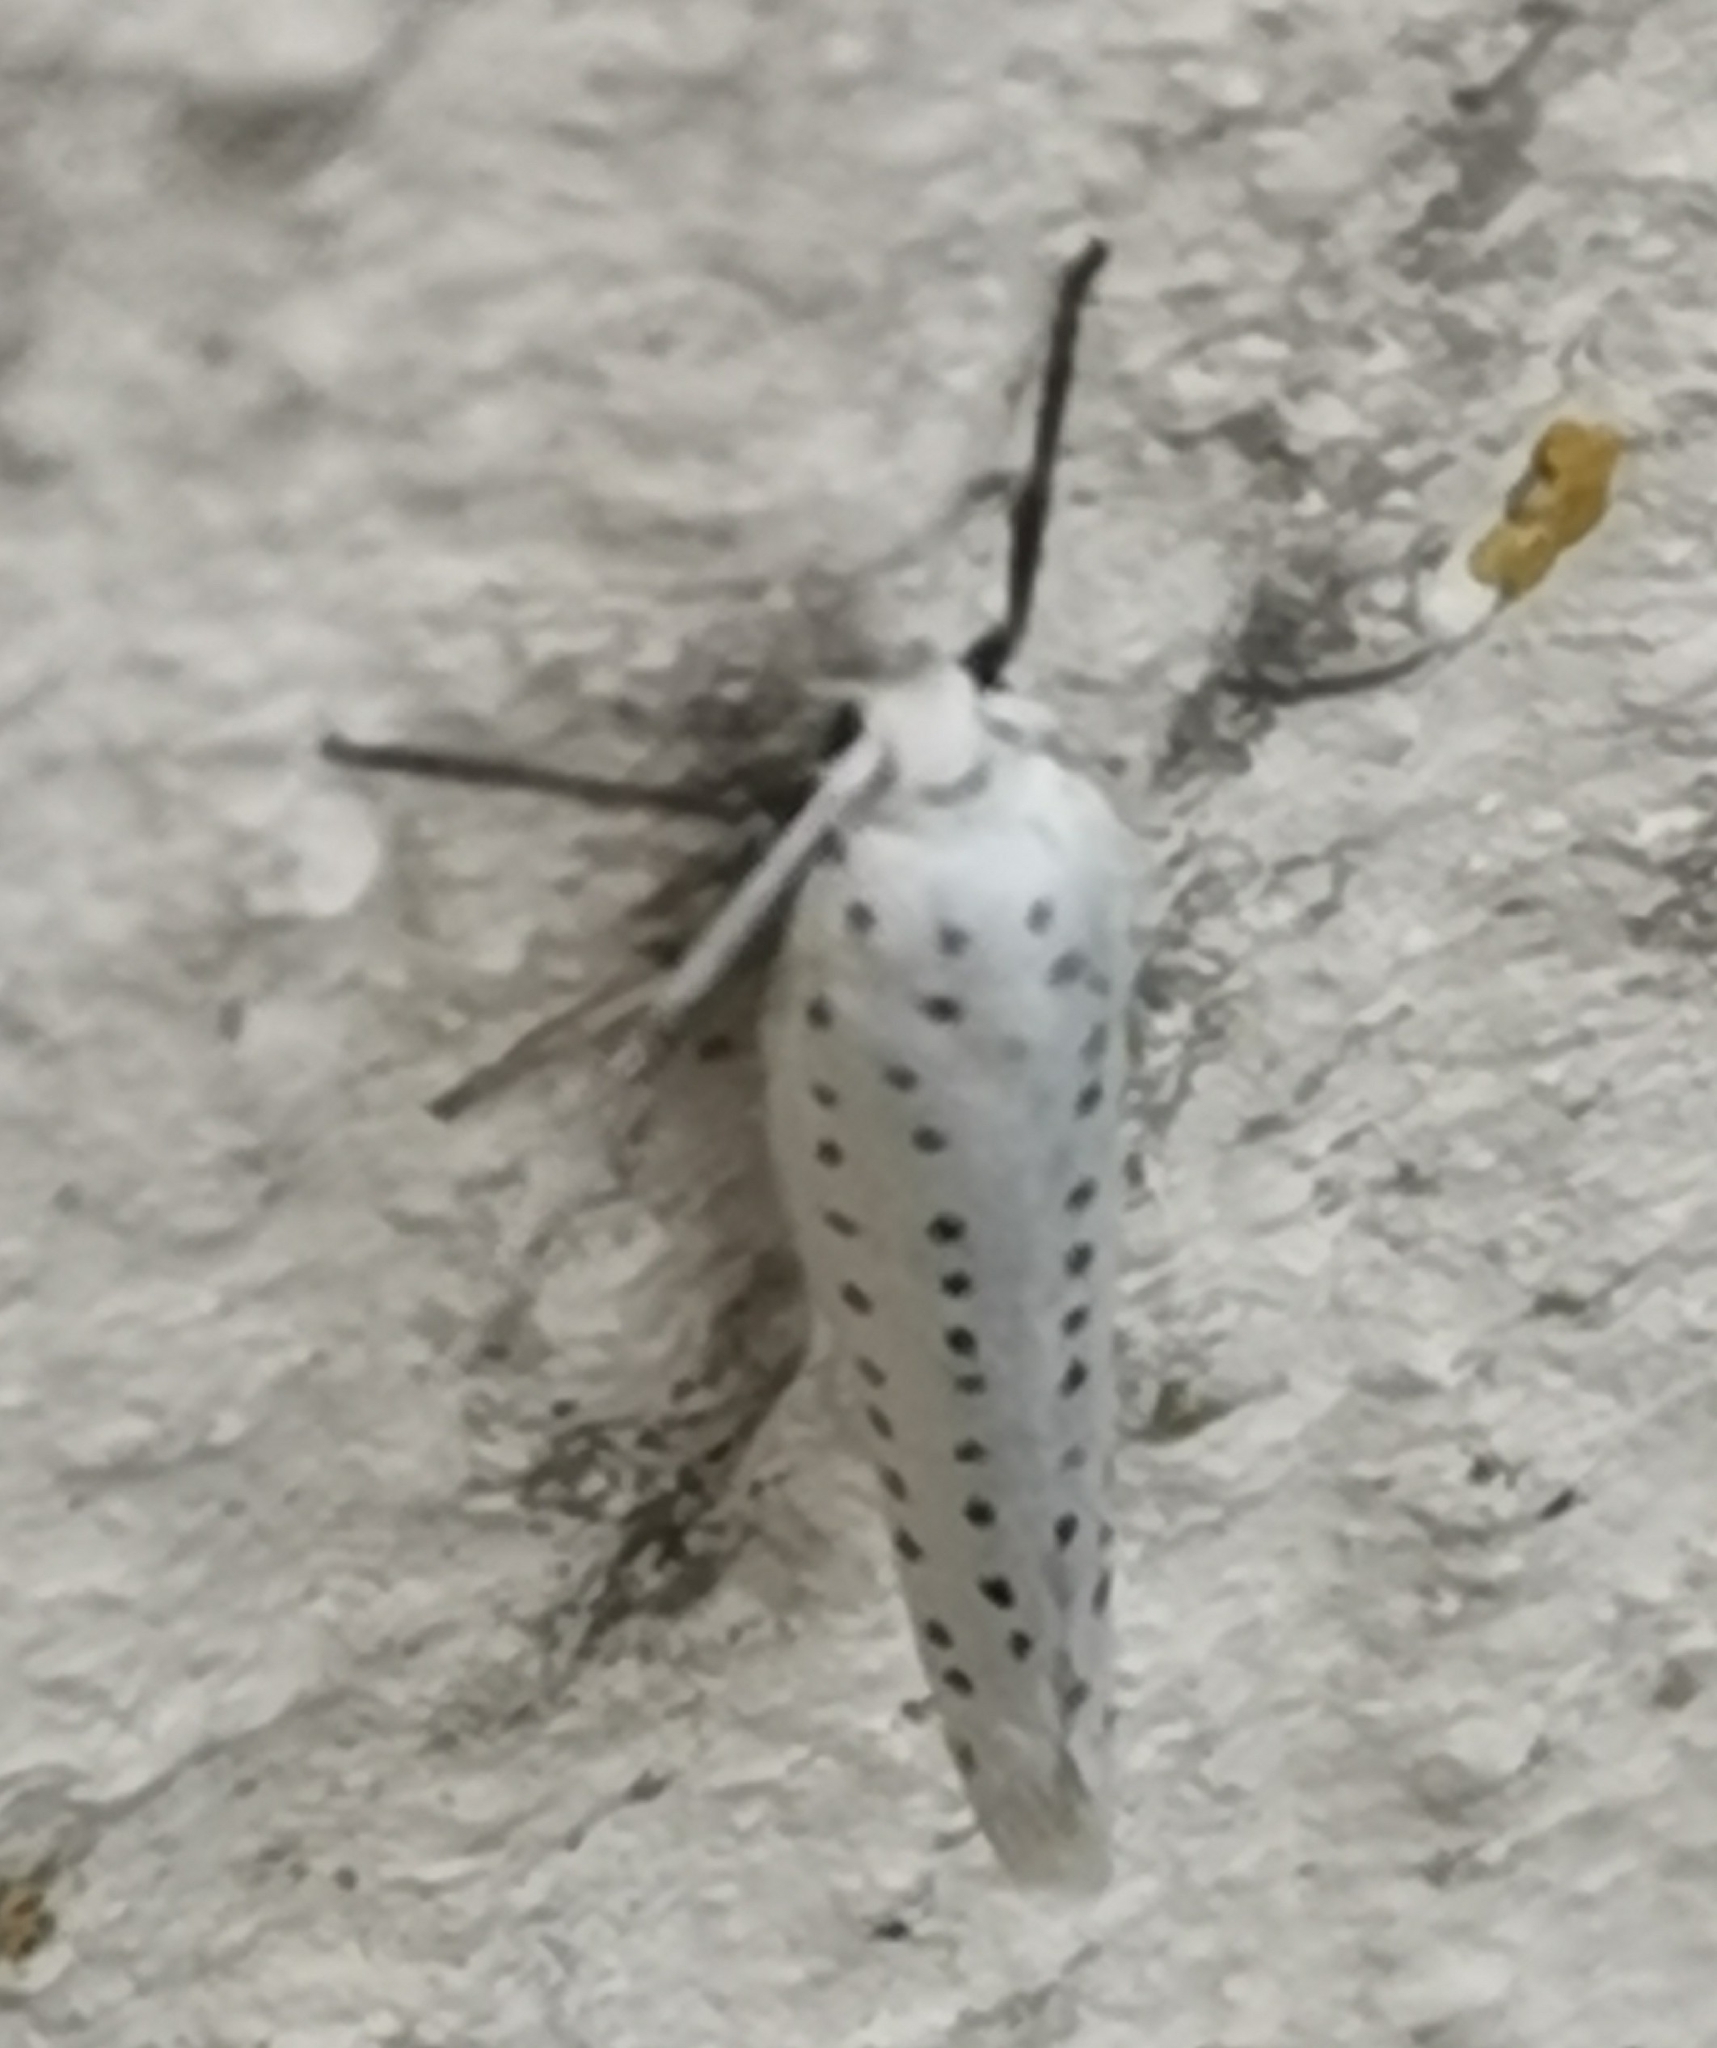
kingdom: Animalia
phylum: Arthropoda
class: Insecta
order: Lepidoptera
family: Yponomeutidae
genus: Yponomeuta
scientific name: Yponomeuta evonymella
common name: Bird-cherry ermine
